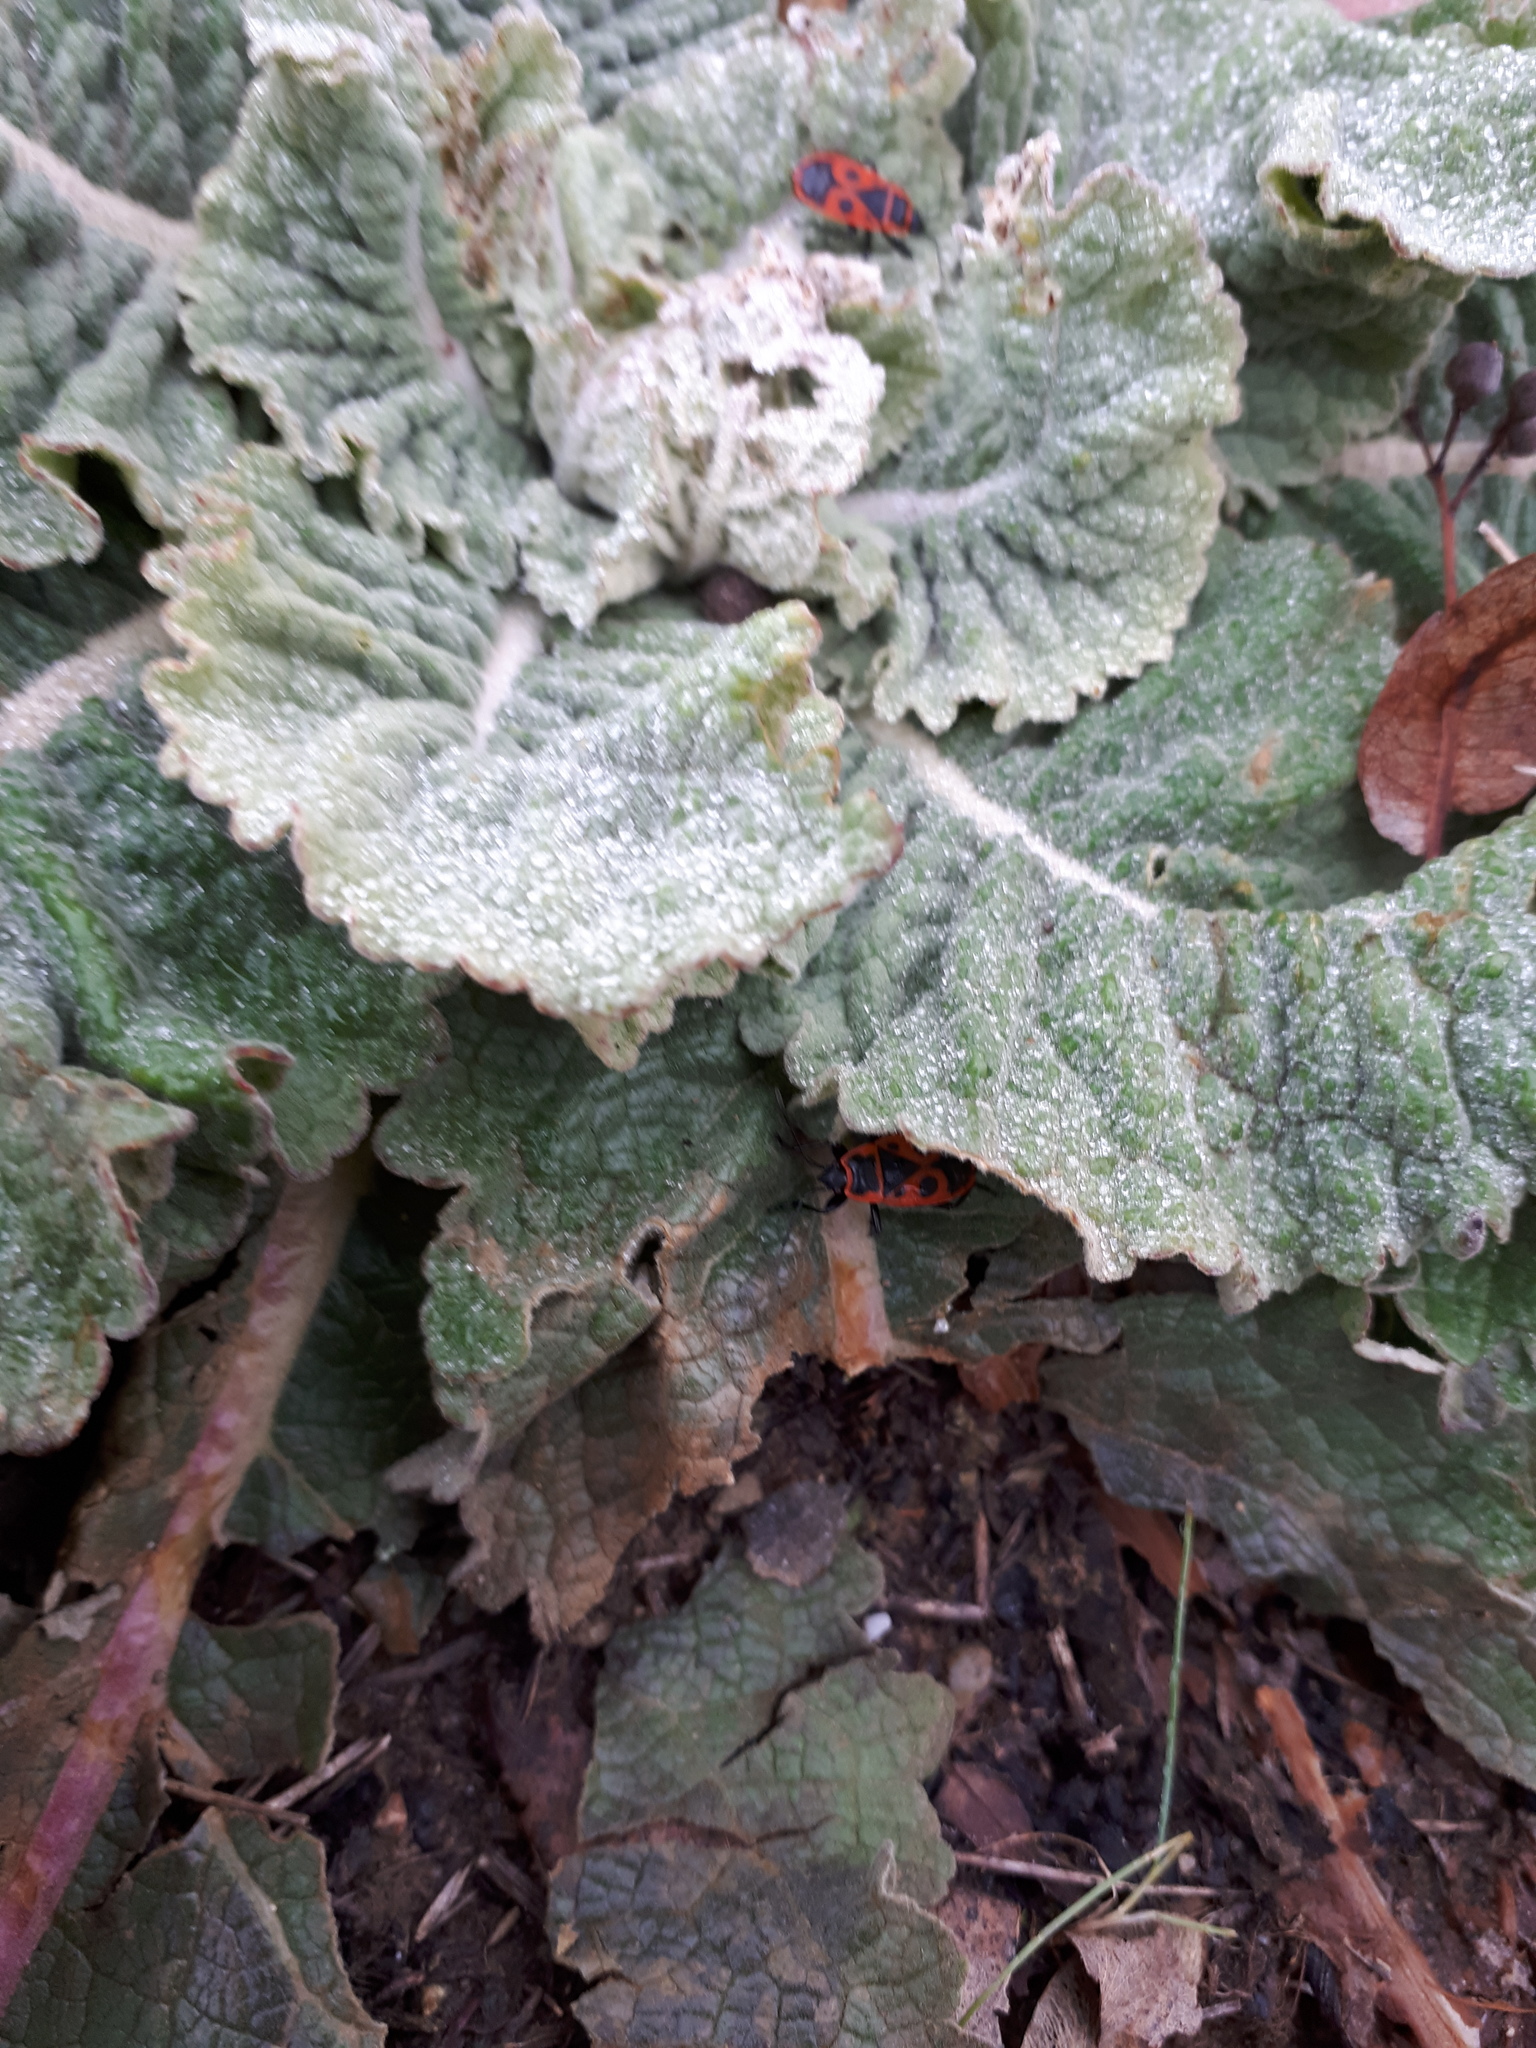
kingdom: Animalia
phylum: Arthropoda
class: Insecta
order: Hemiptera
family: Pyrrhocoridae
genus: Pyrrhocoris
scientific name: Pyrrhocoris apterus
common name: Firebug
